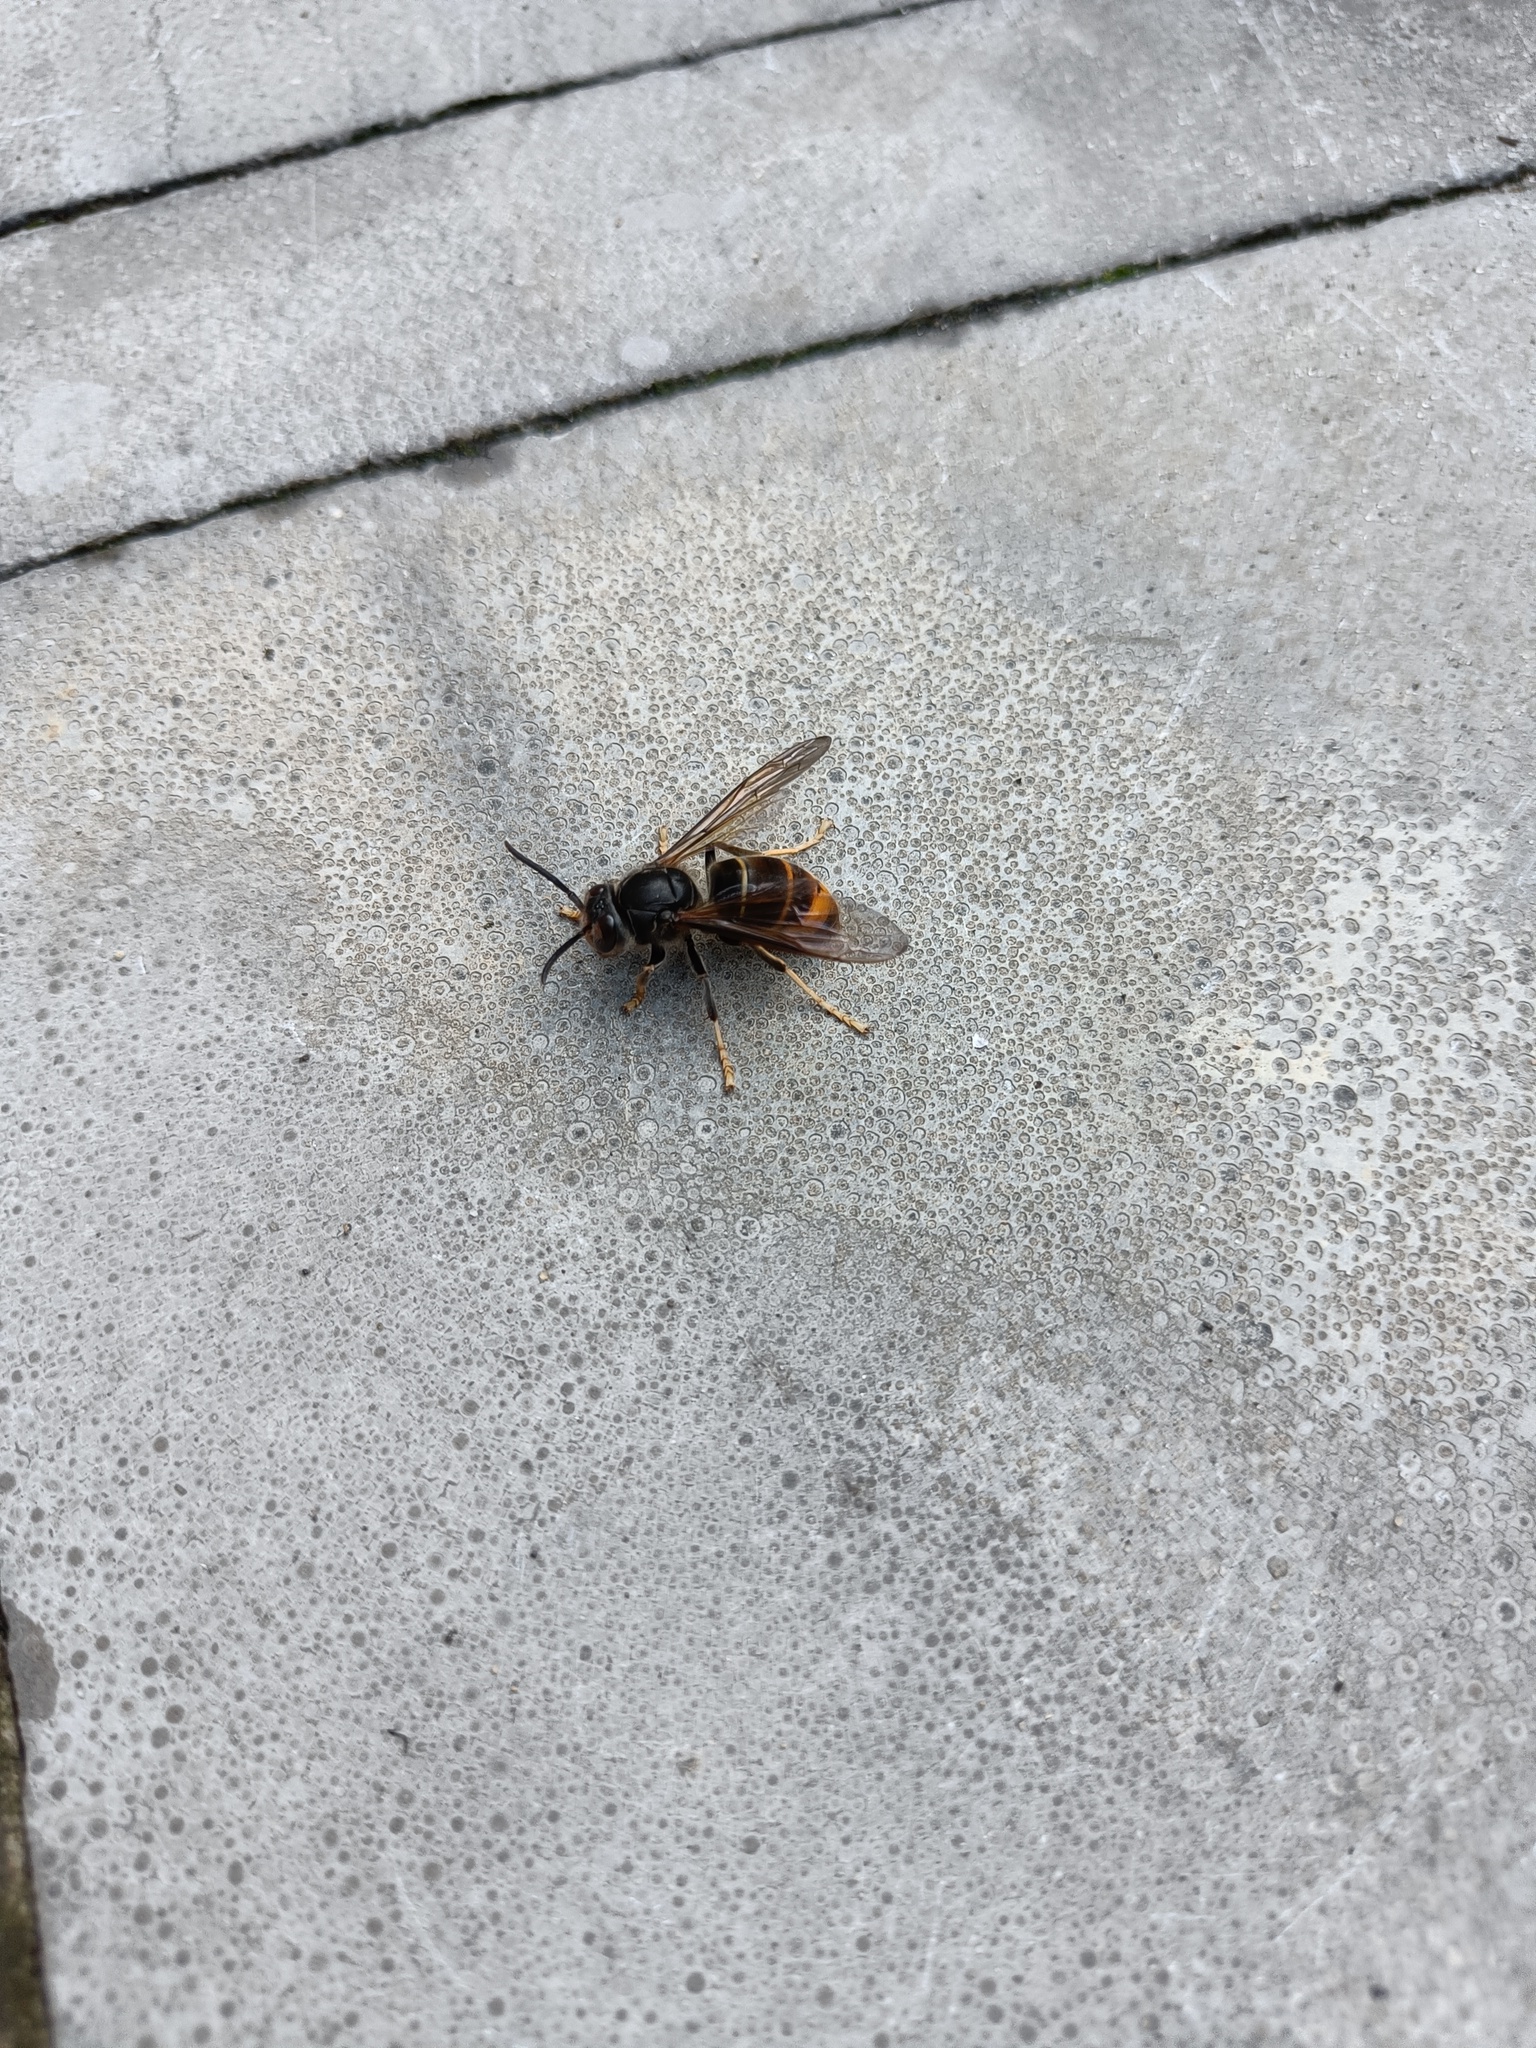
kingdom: Animalia
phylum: Arthropoda
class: Insecta
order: Hymenoptera
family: Vespidae
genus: Vespa
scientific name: Vespa velutina
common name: Asian hornet
